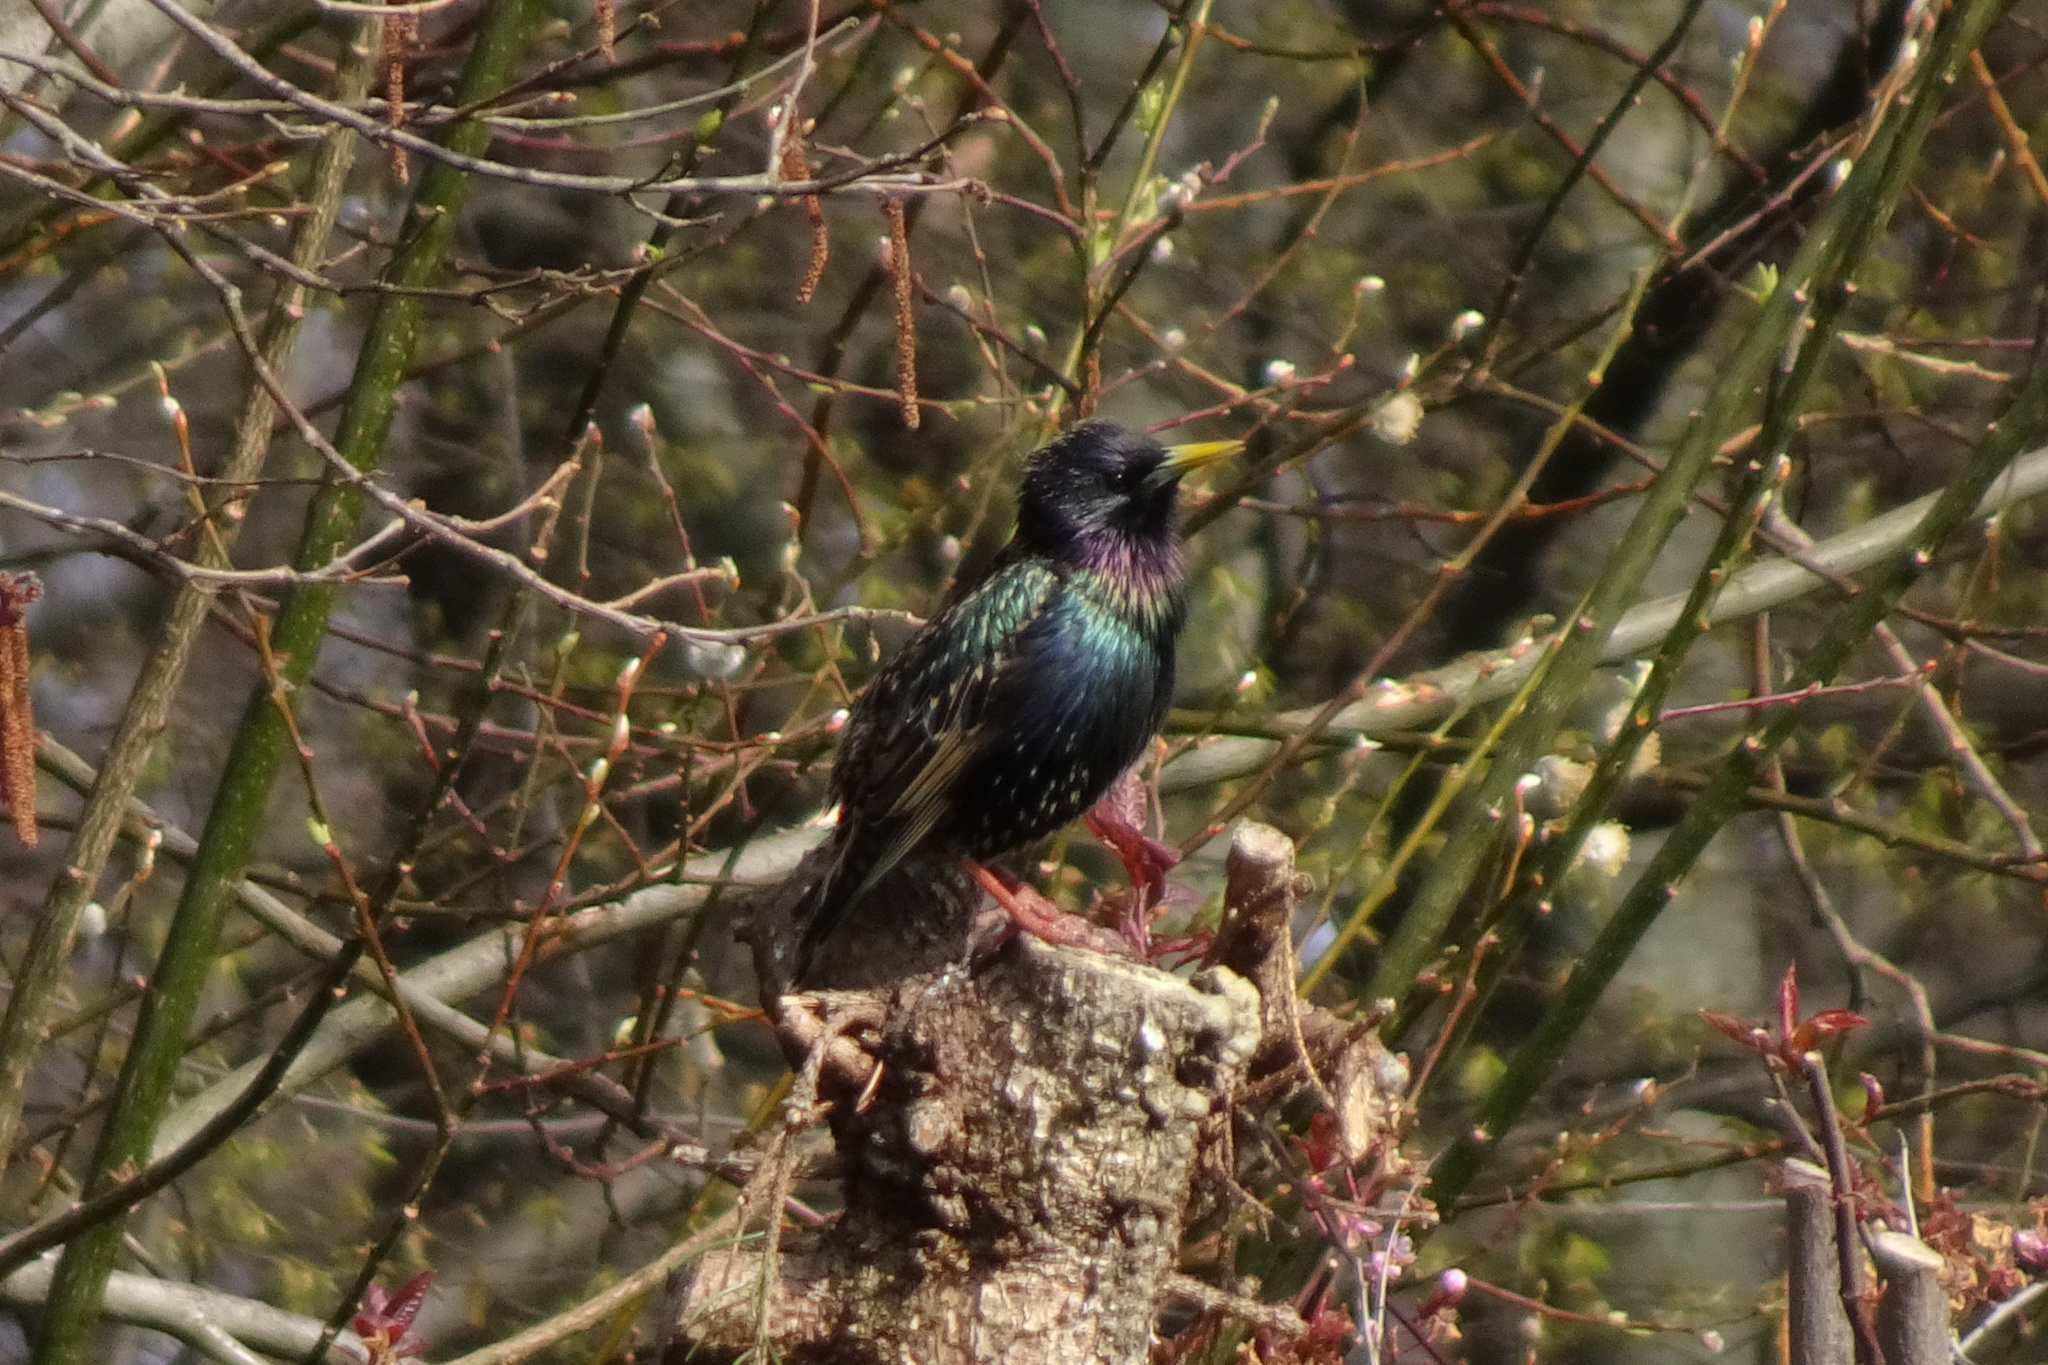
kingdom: Animalia
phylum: Chordata
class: Aves
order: Passeriformes
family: Sturnidae
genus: Sturnus
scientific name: Sturnus vulgaris
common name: Common starling
